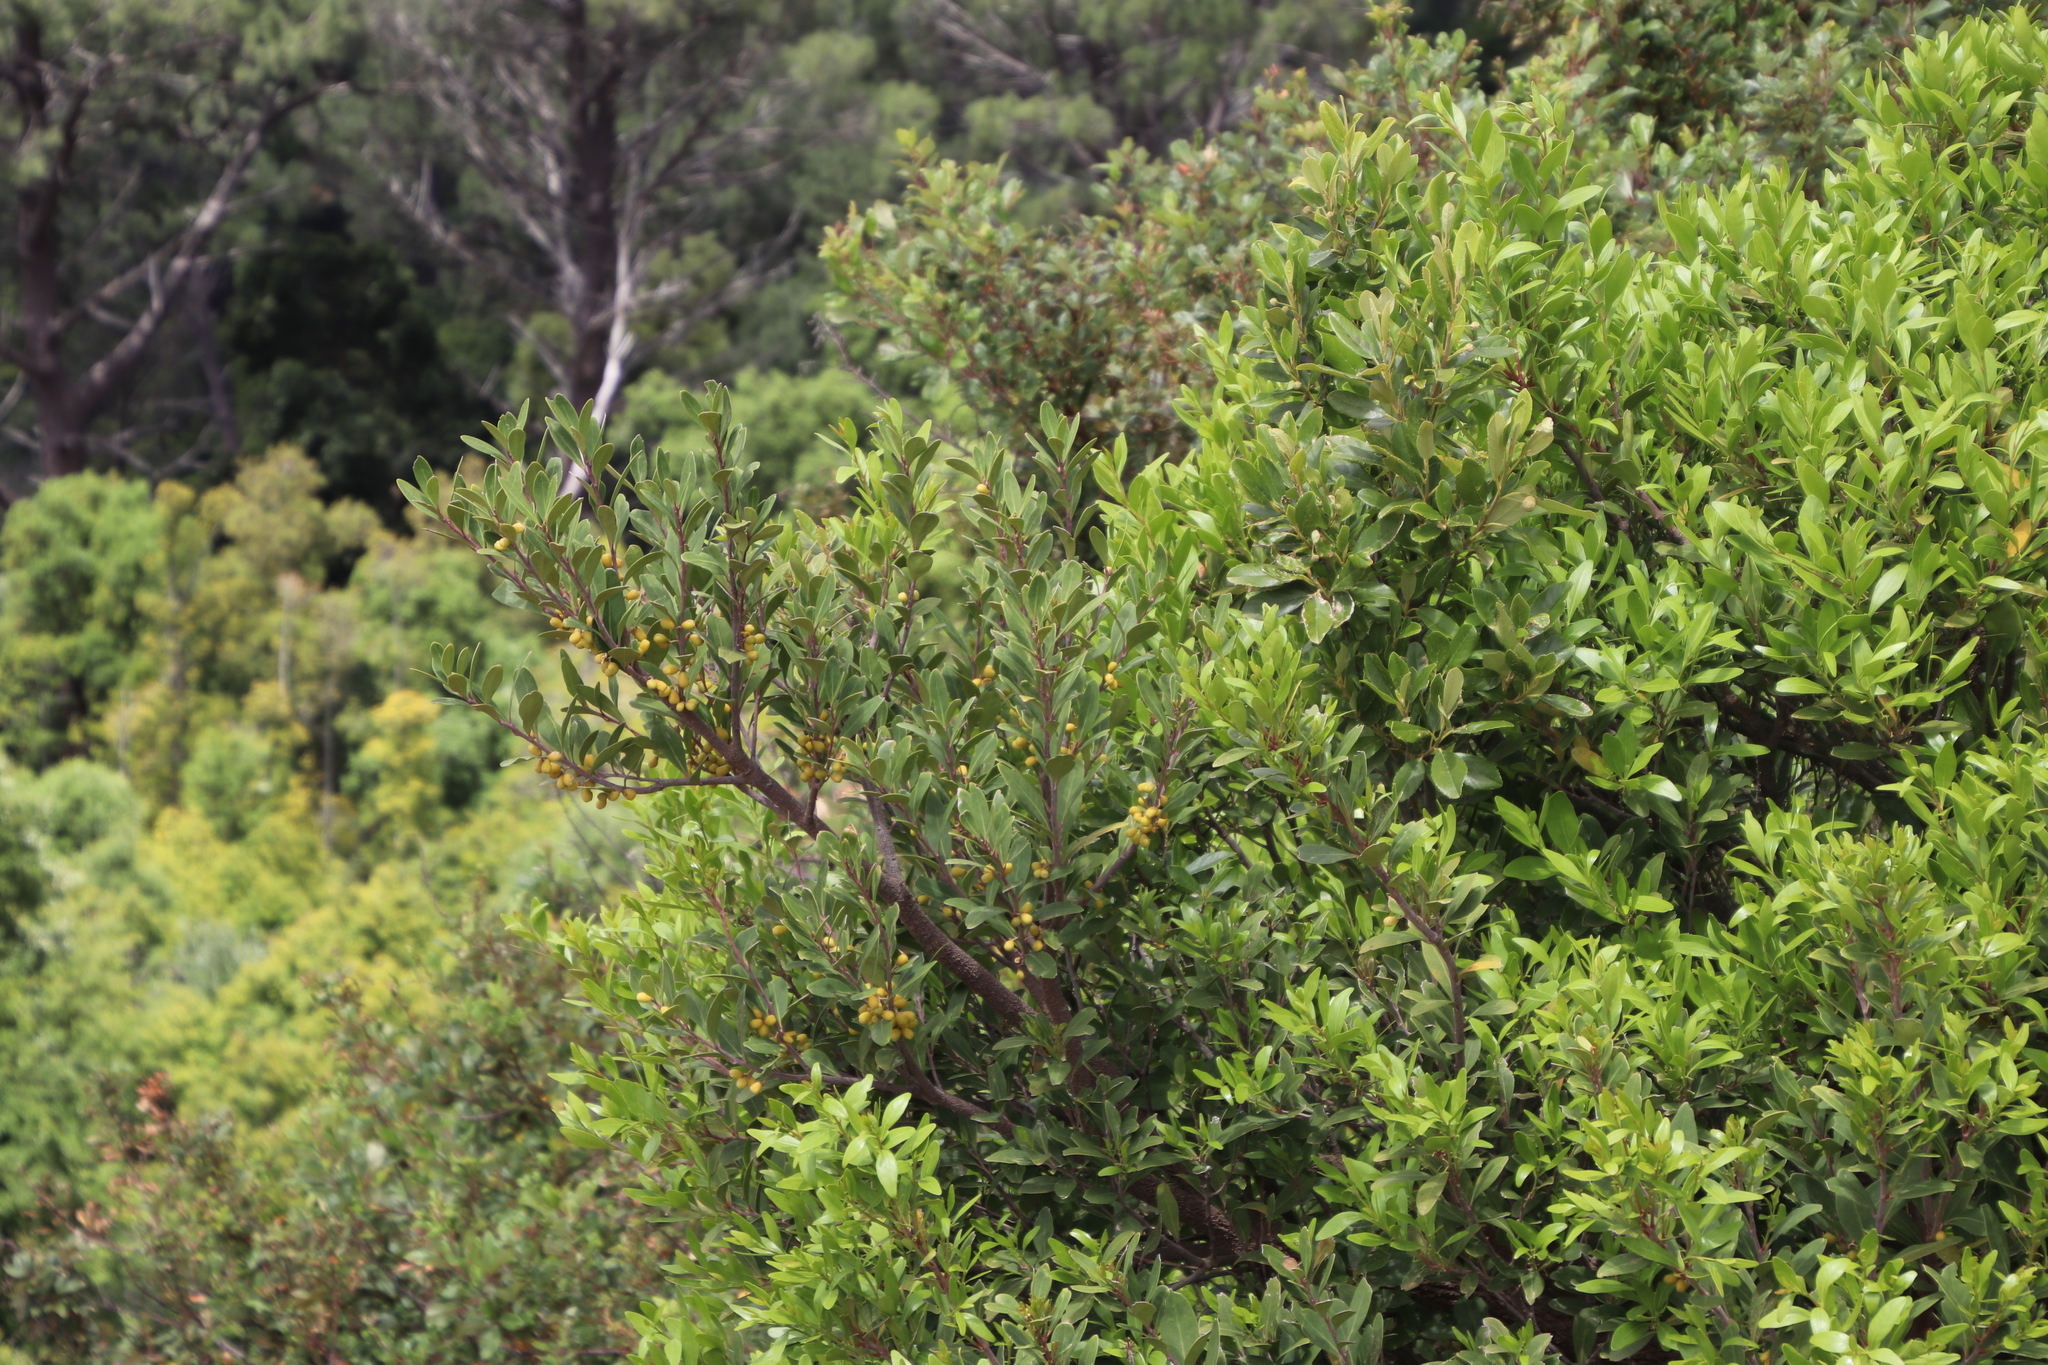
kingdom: Plantae
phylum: Tracheophyta
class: Magnoliopsida
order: Celastrales
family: Celastraceae
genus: Gymnosporia
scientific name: Gymnosporia laurina
